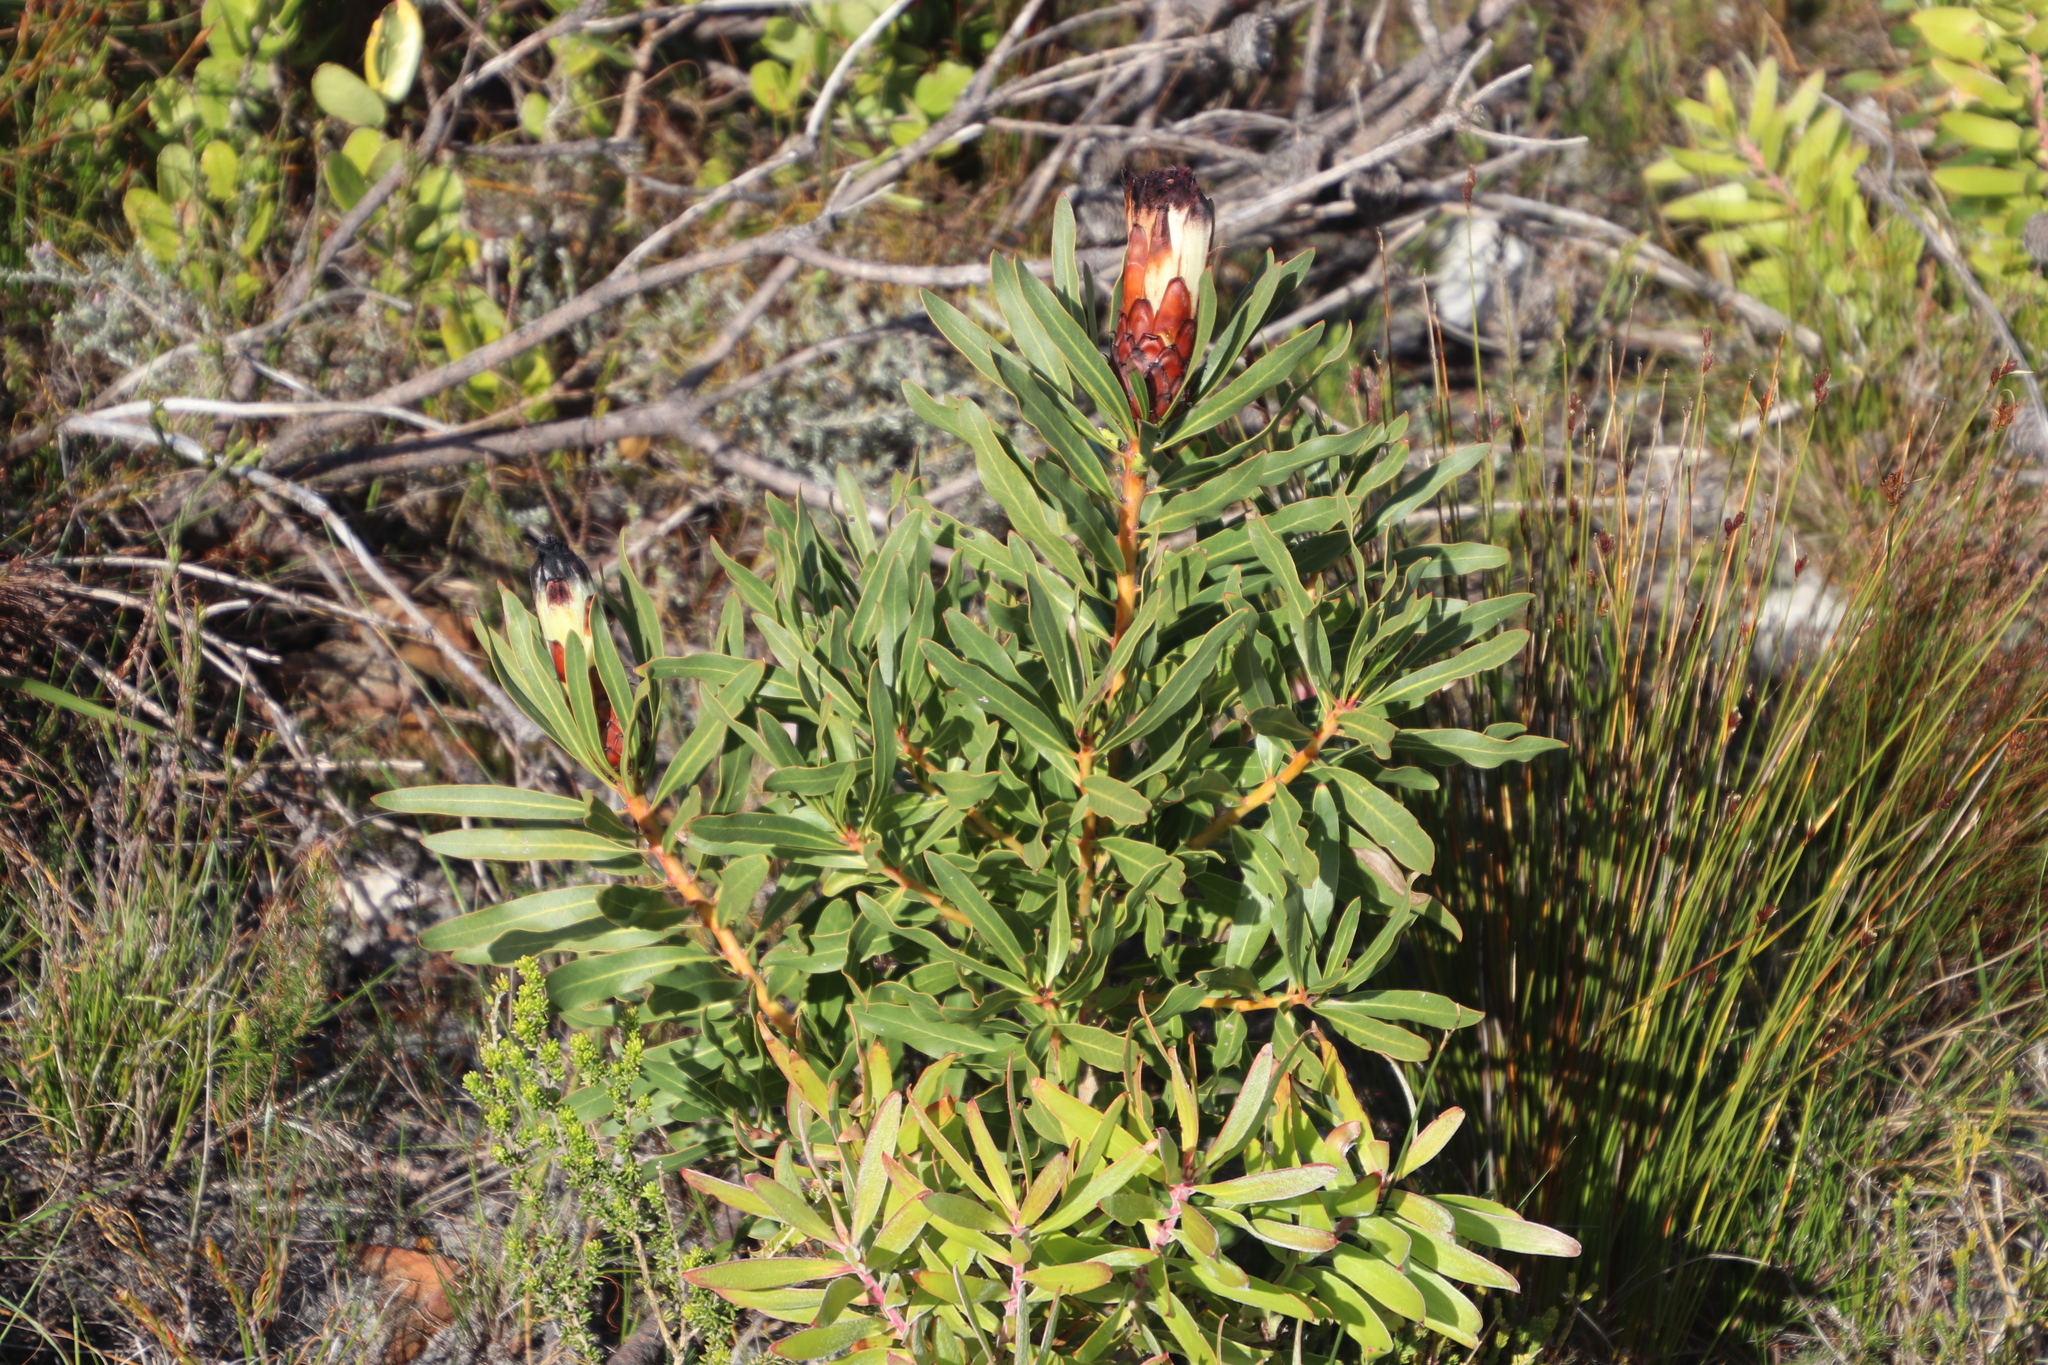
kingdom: Plantae
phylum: Tracheophyta
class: Magnoliopsida
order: Proteales
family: Proteaceae
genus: Protea
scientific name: Protea lepidocarpodendron
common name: Black-bearded protea
